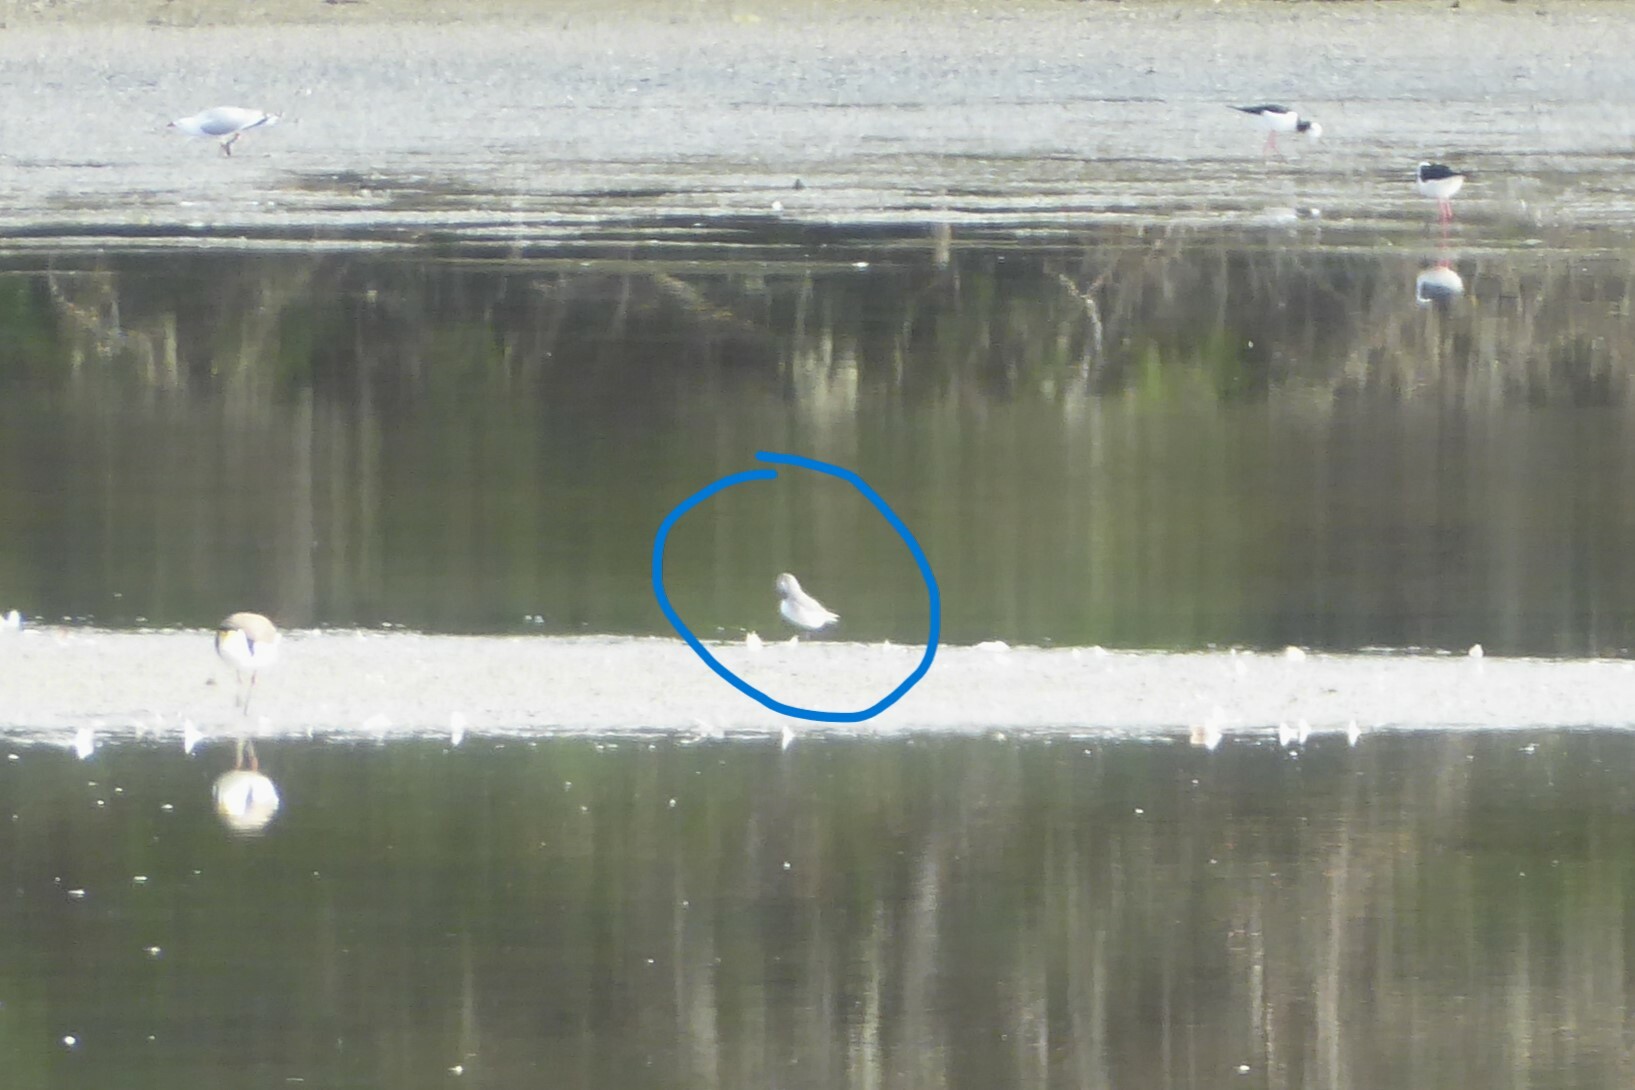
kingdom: Animalia
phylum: Chordata
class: Aves
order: Charadriiformes
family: Charadriidae
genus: Anarhynchus
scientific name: Anarhynchus frontalis
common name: Wrybill
